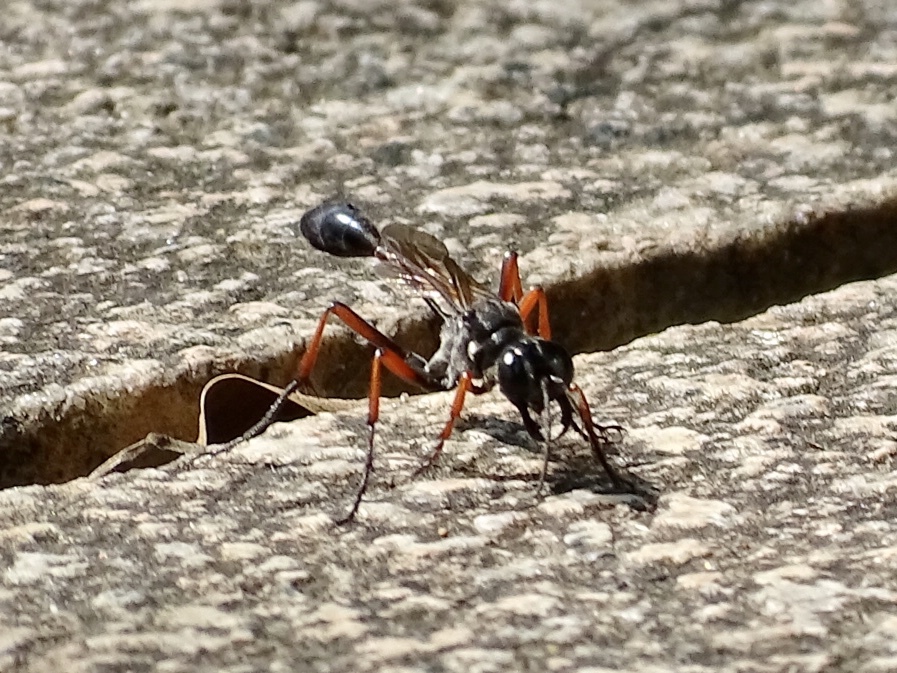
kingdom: Animalia
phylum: Arthropoda
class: Insecta
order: Hymenoptera
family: Sphecidae
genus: Ammophila
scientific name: Ammophila clavus
